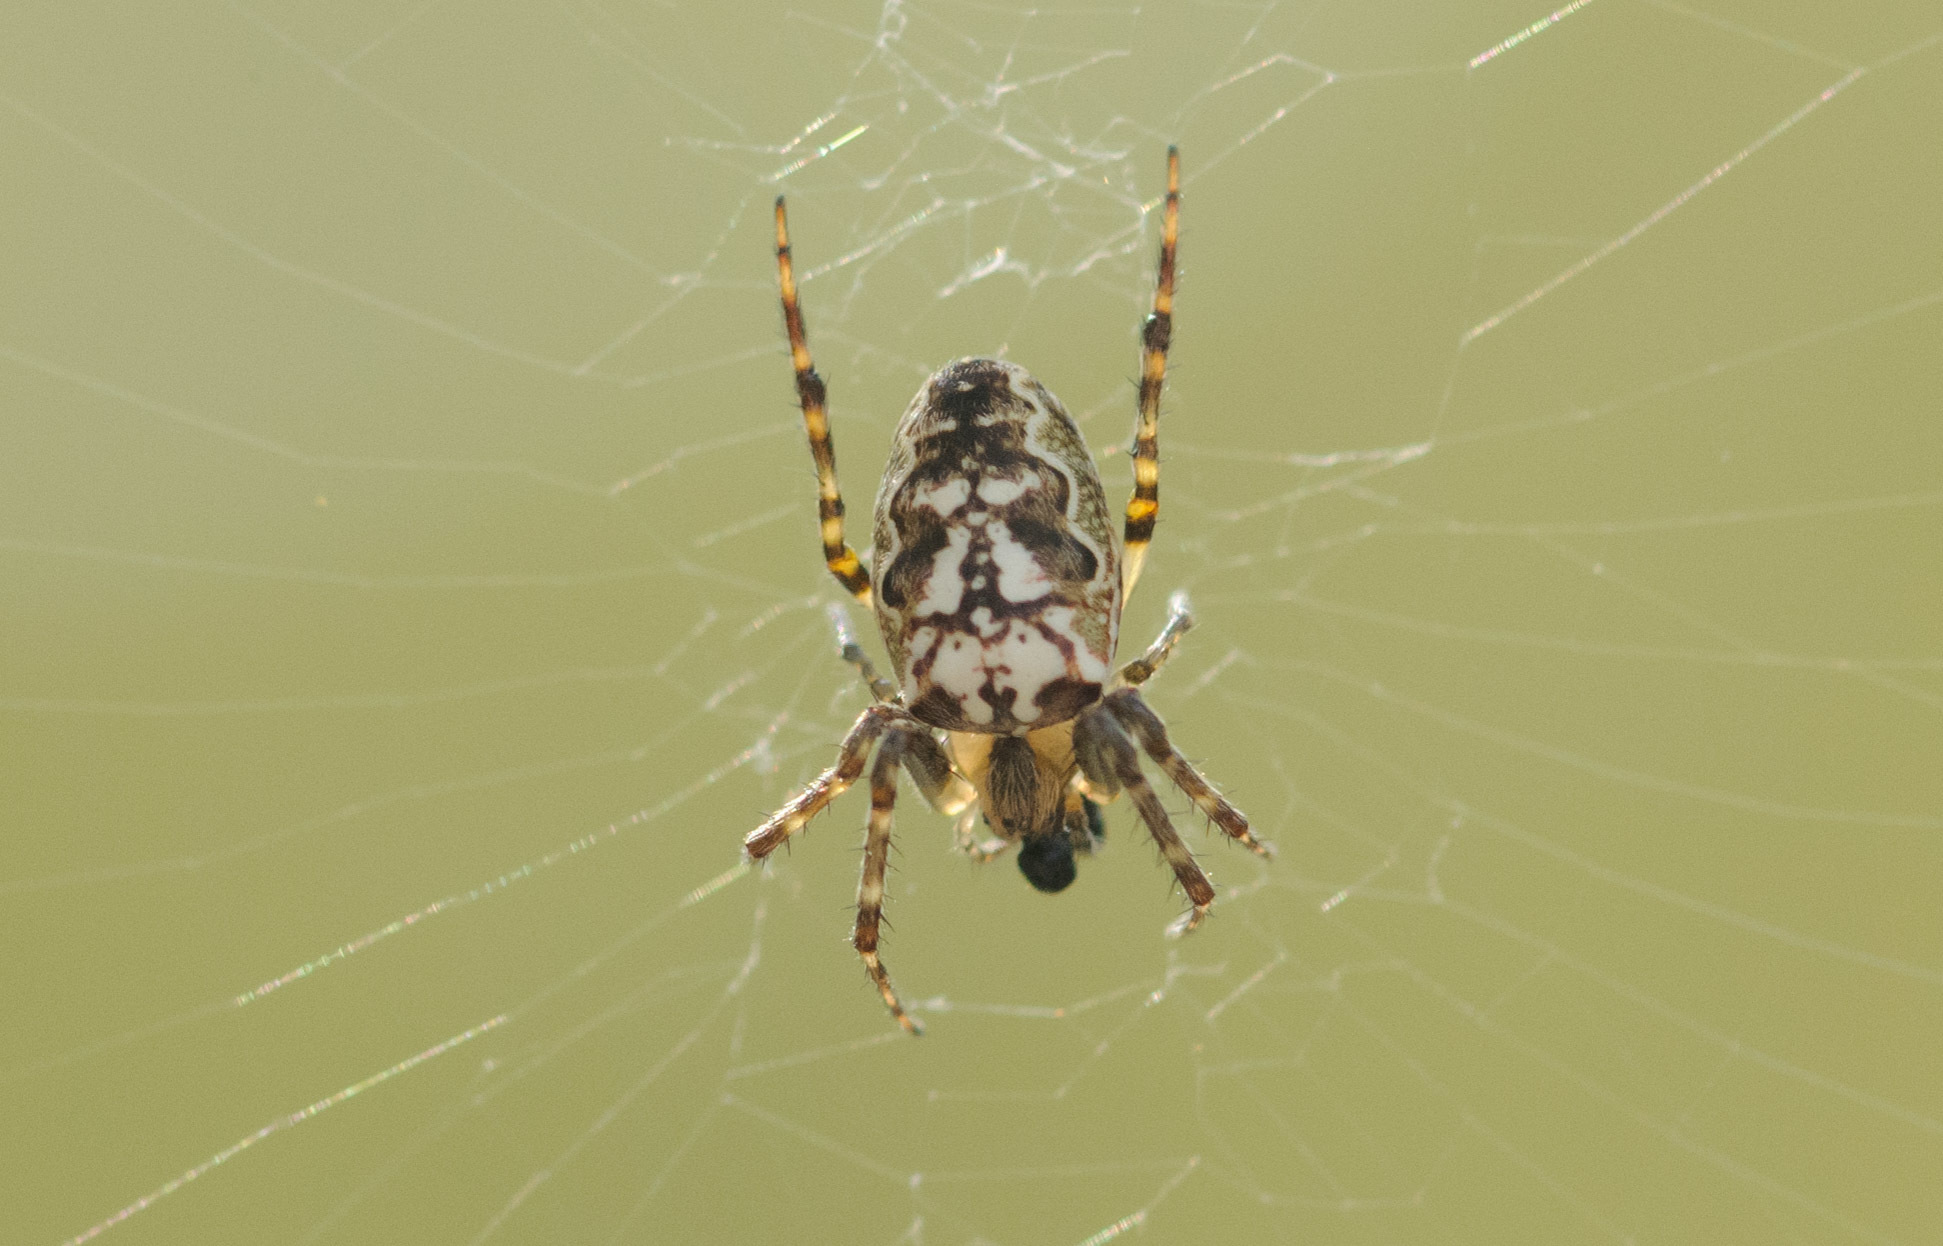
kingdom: Animalia
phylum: Arthropoda
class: Arachnida
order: Araneae
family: Araneidae
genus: Plebs
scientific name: Plebs eburnus
